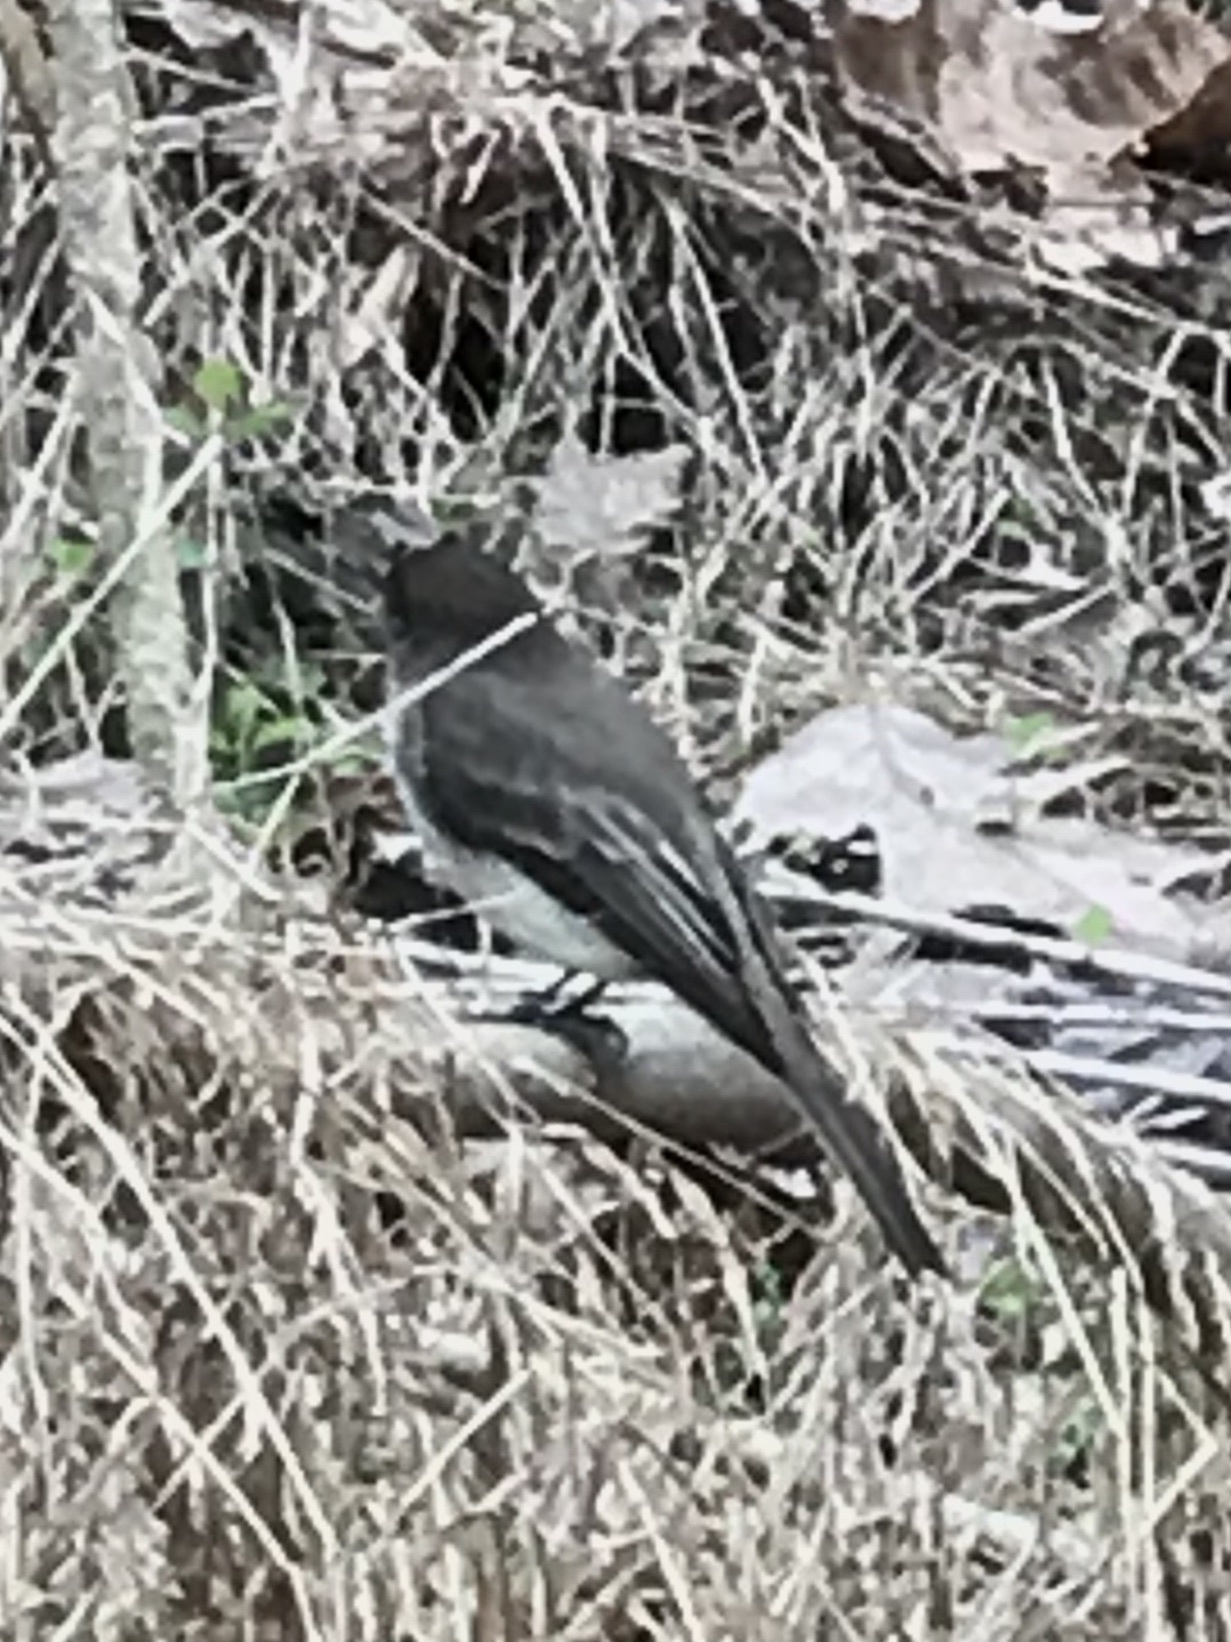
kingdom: Animalia
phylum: Chordata
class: Aves
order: Passeriformes
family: Tyrannidae
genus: Sayornis
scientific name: Sayornis phoebe
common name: Eastern phoebe
